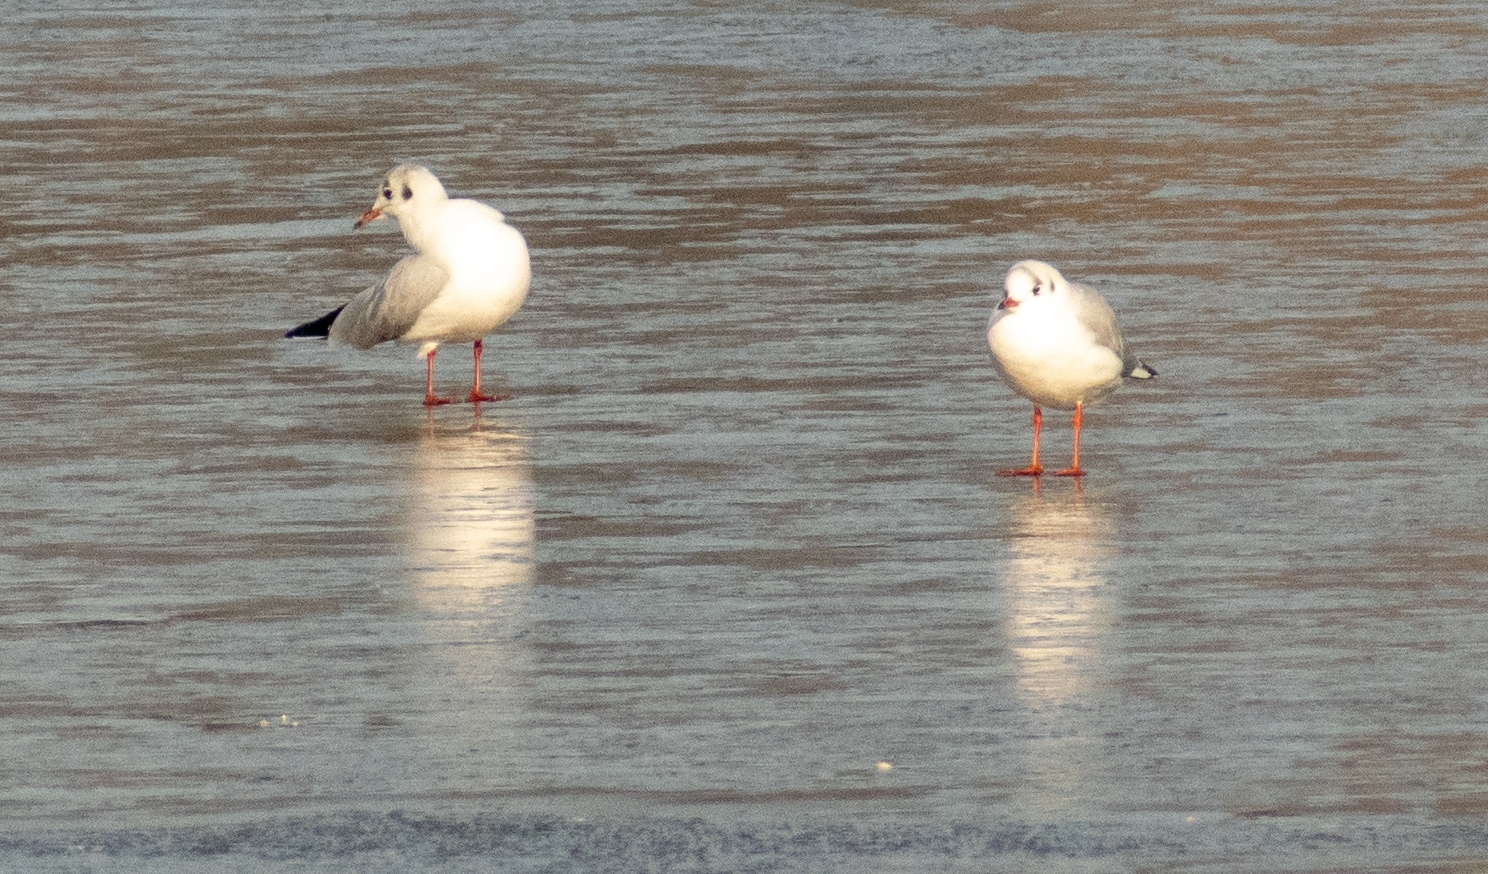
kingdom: Animalia
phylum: Chordata
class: Aves
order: Charadriiformes
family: Laridae
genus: Chroicocephalus
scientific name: Chroicocephalus ridibundus
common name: Black-headed gull
